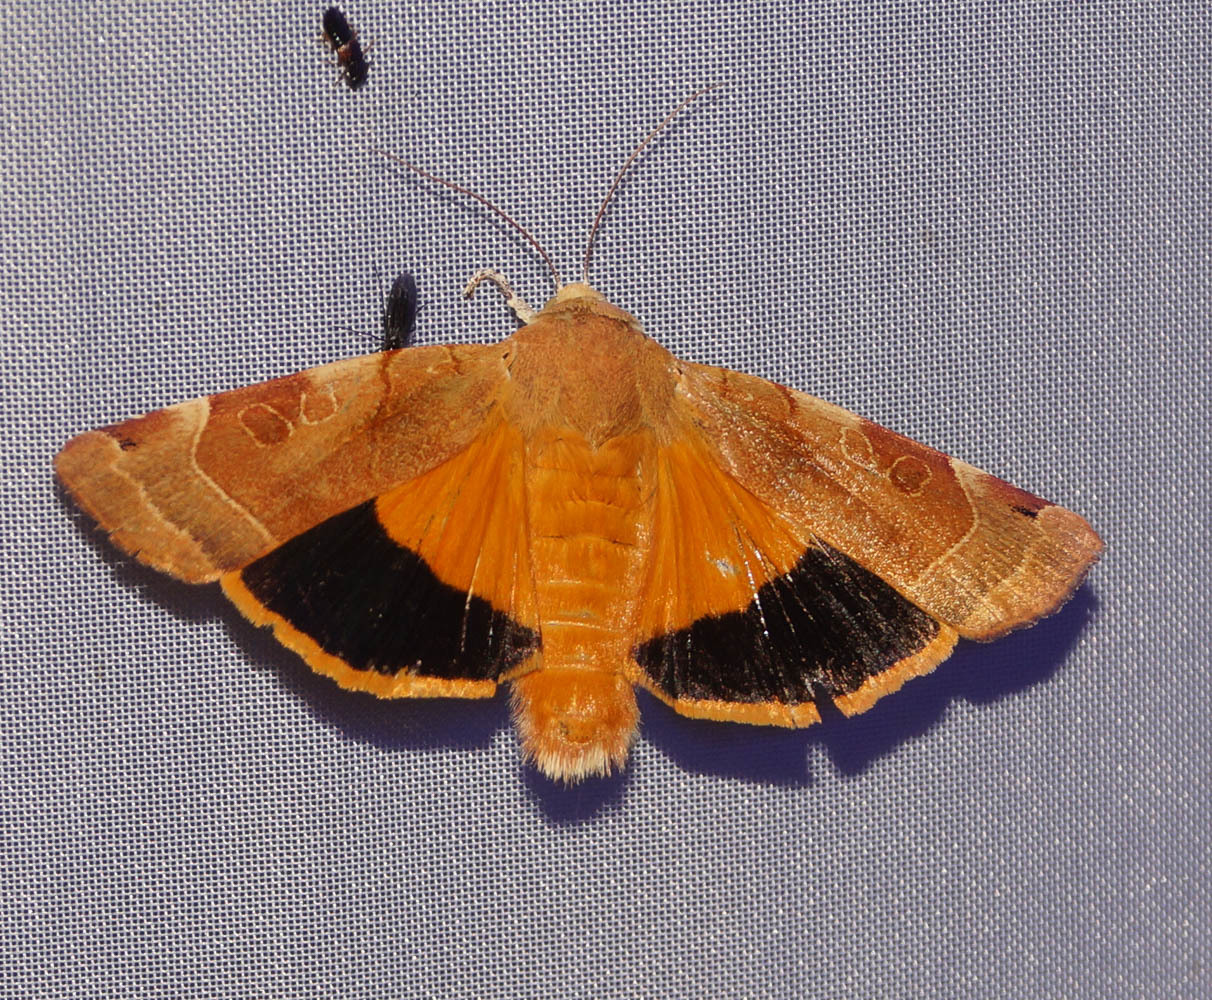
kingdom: Animalia
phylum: Arthropoda
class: Insecta
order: Lepidoptera
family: Noctuidae
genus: Noctua
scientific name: Noctua fimbriata
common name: Broad-bordered yellow underwing
